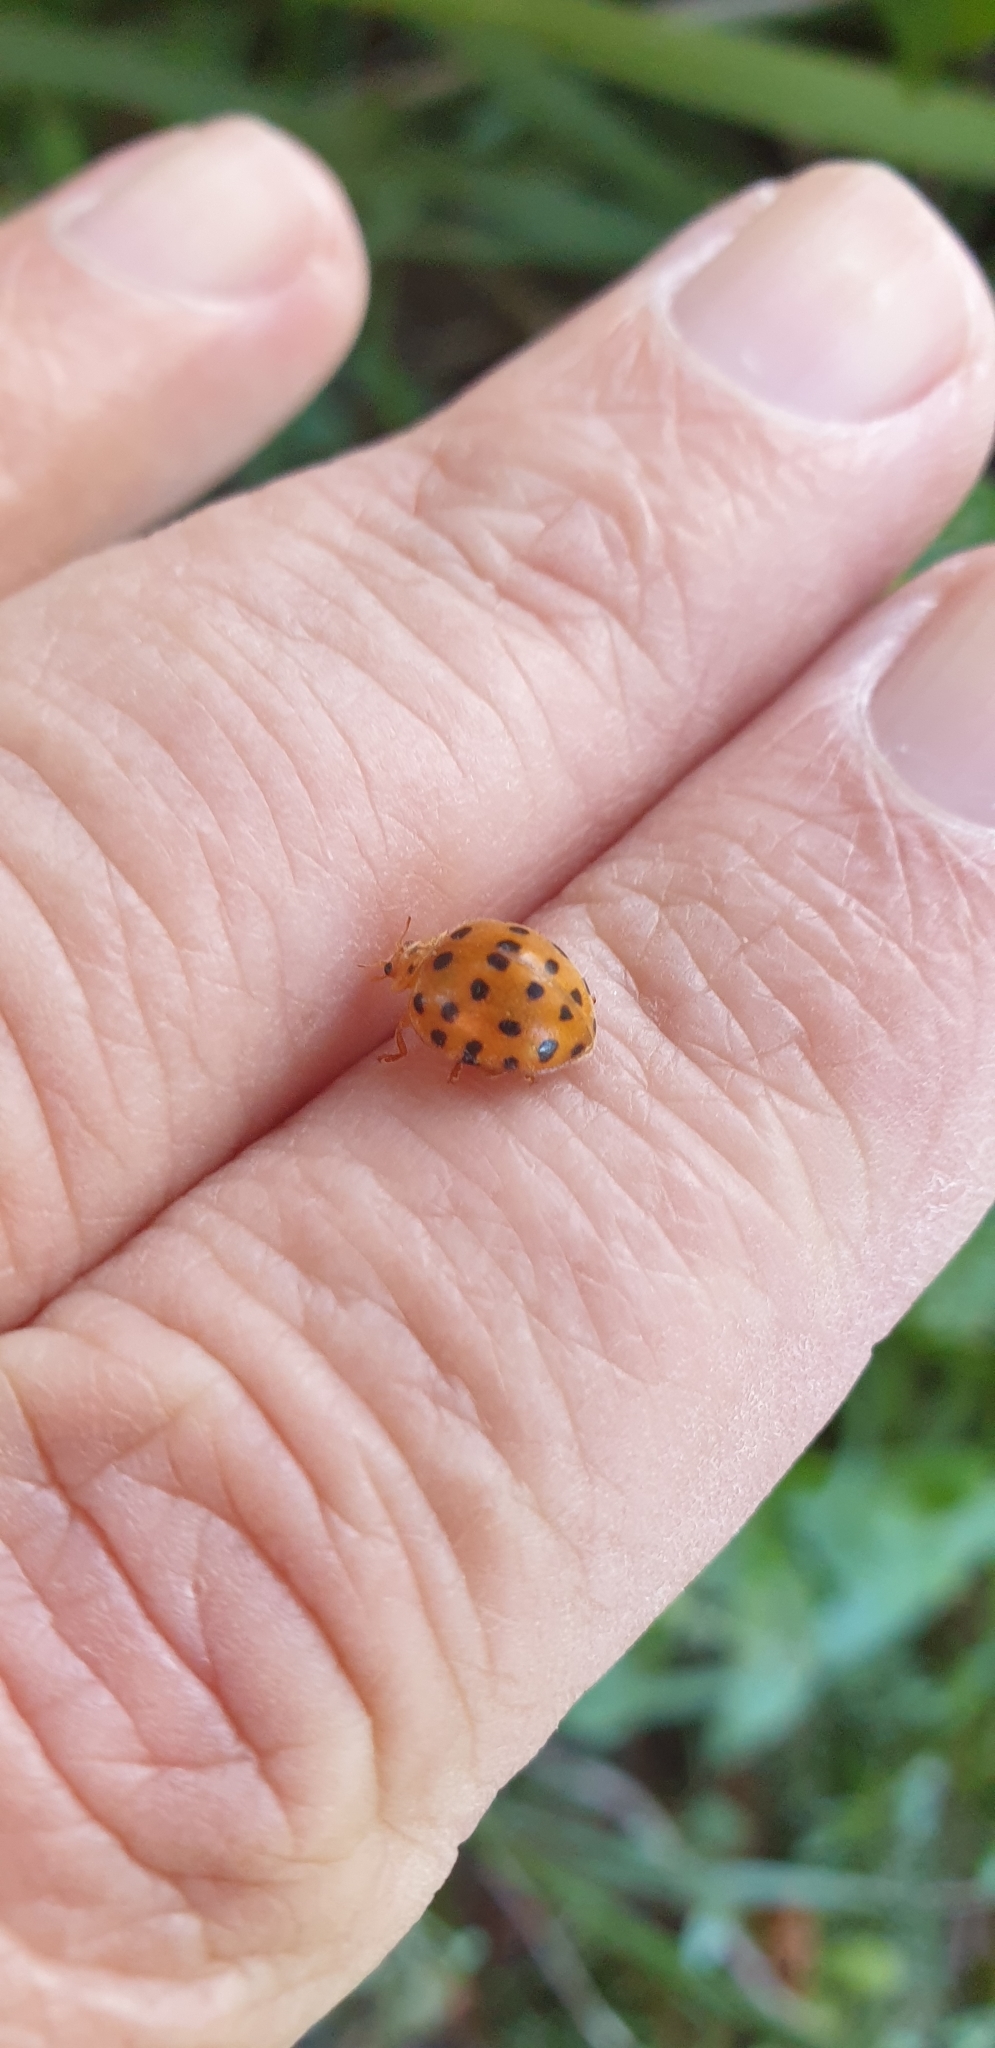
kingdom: Animalia
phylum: Arthropoda
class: Insecta
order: Coleoptera
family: Coccinellidae
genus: Henosepilachna
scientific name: Henosepilachna vigintioctopunctata
